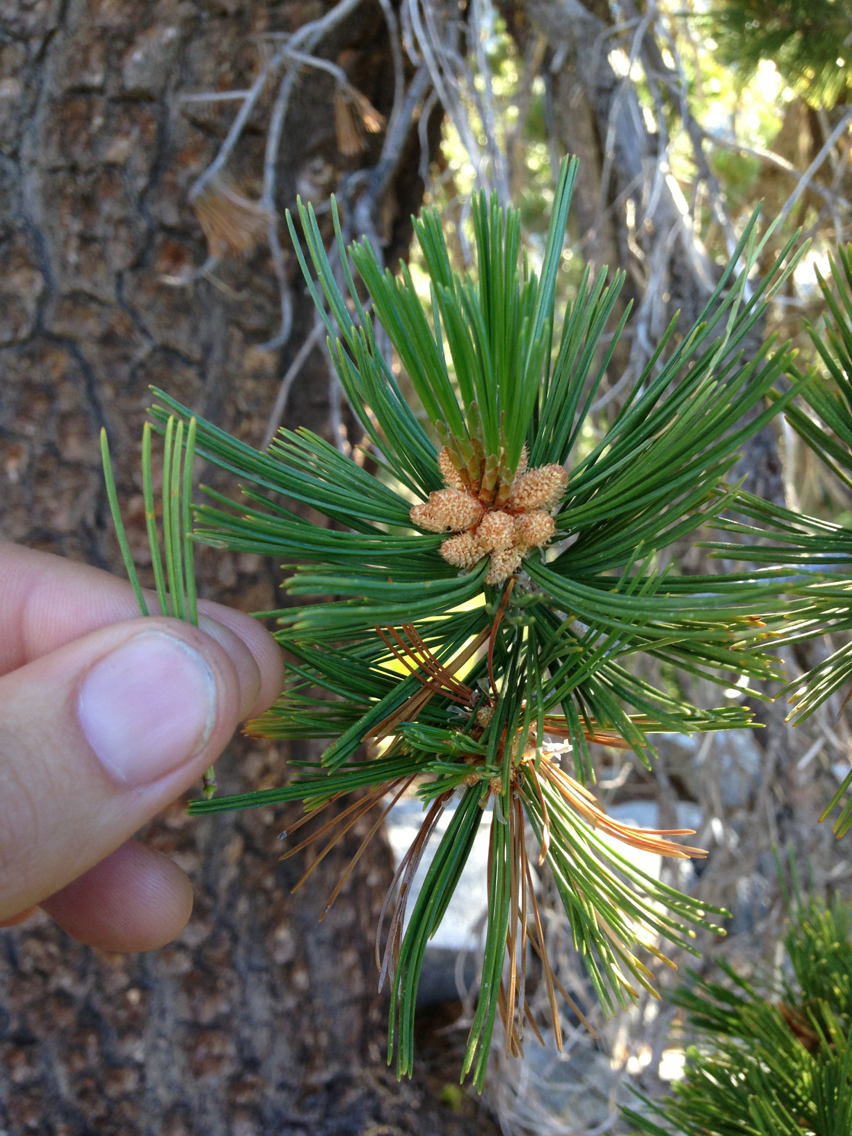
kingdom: Plantae
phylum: Tracheophyta
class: Pinopsida
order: Pinales
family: Pinaceae
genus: Pinus
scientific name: Pinus monticola
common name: Western white pine
